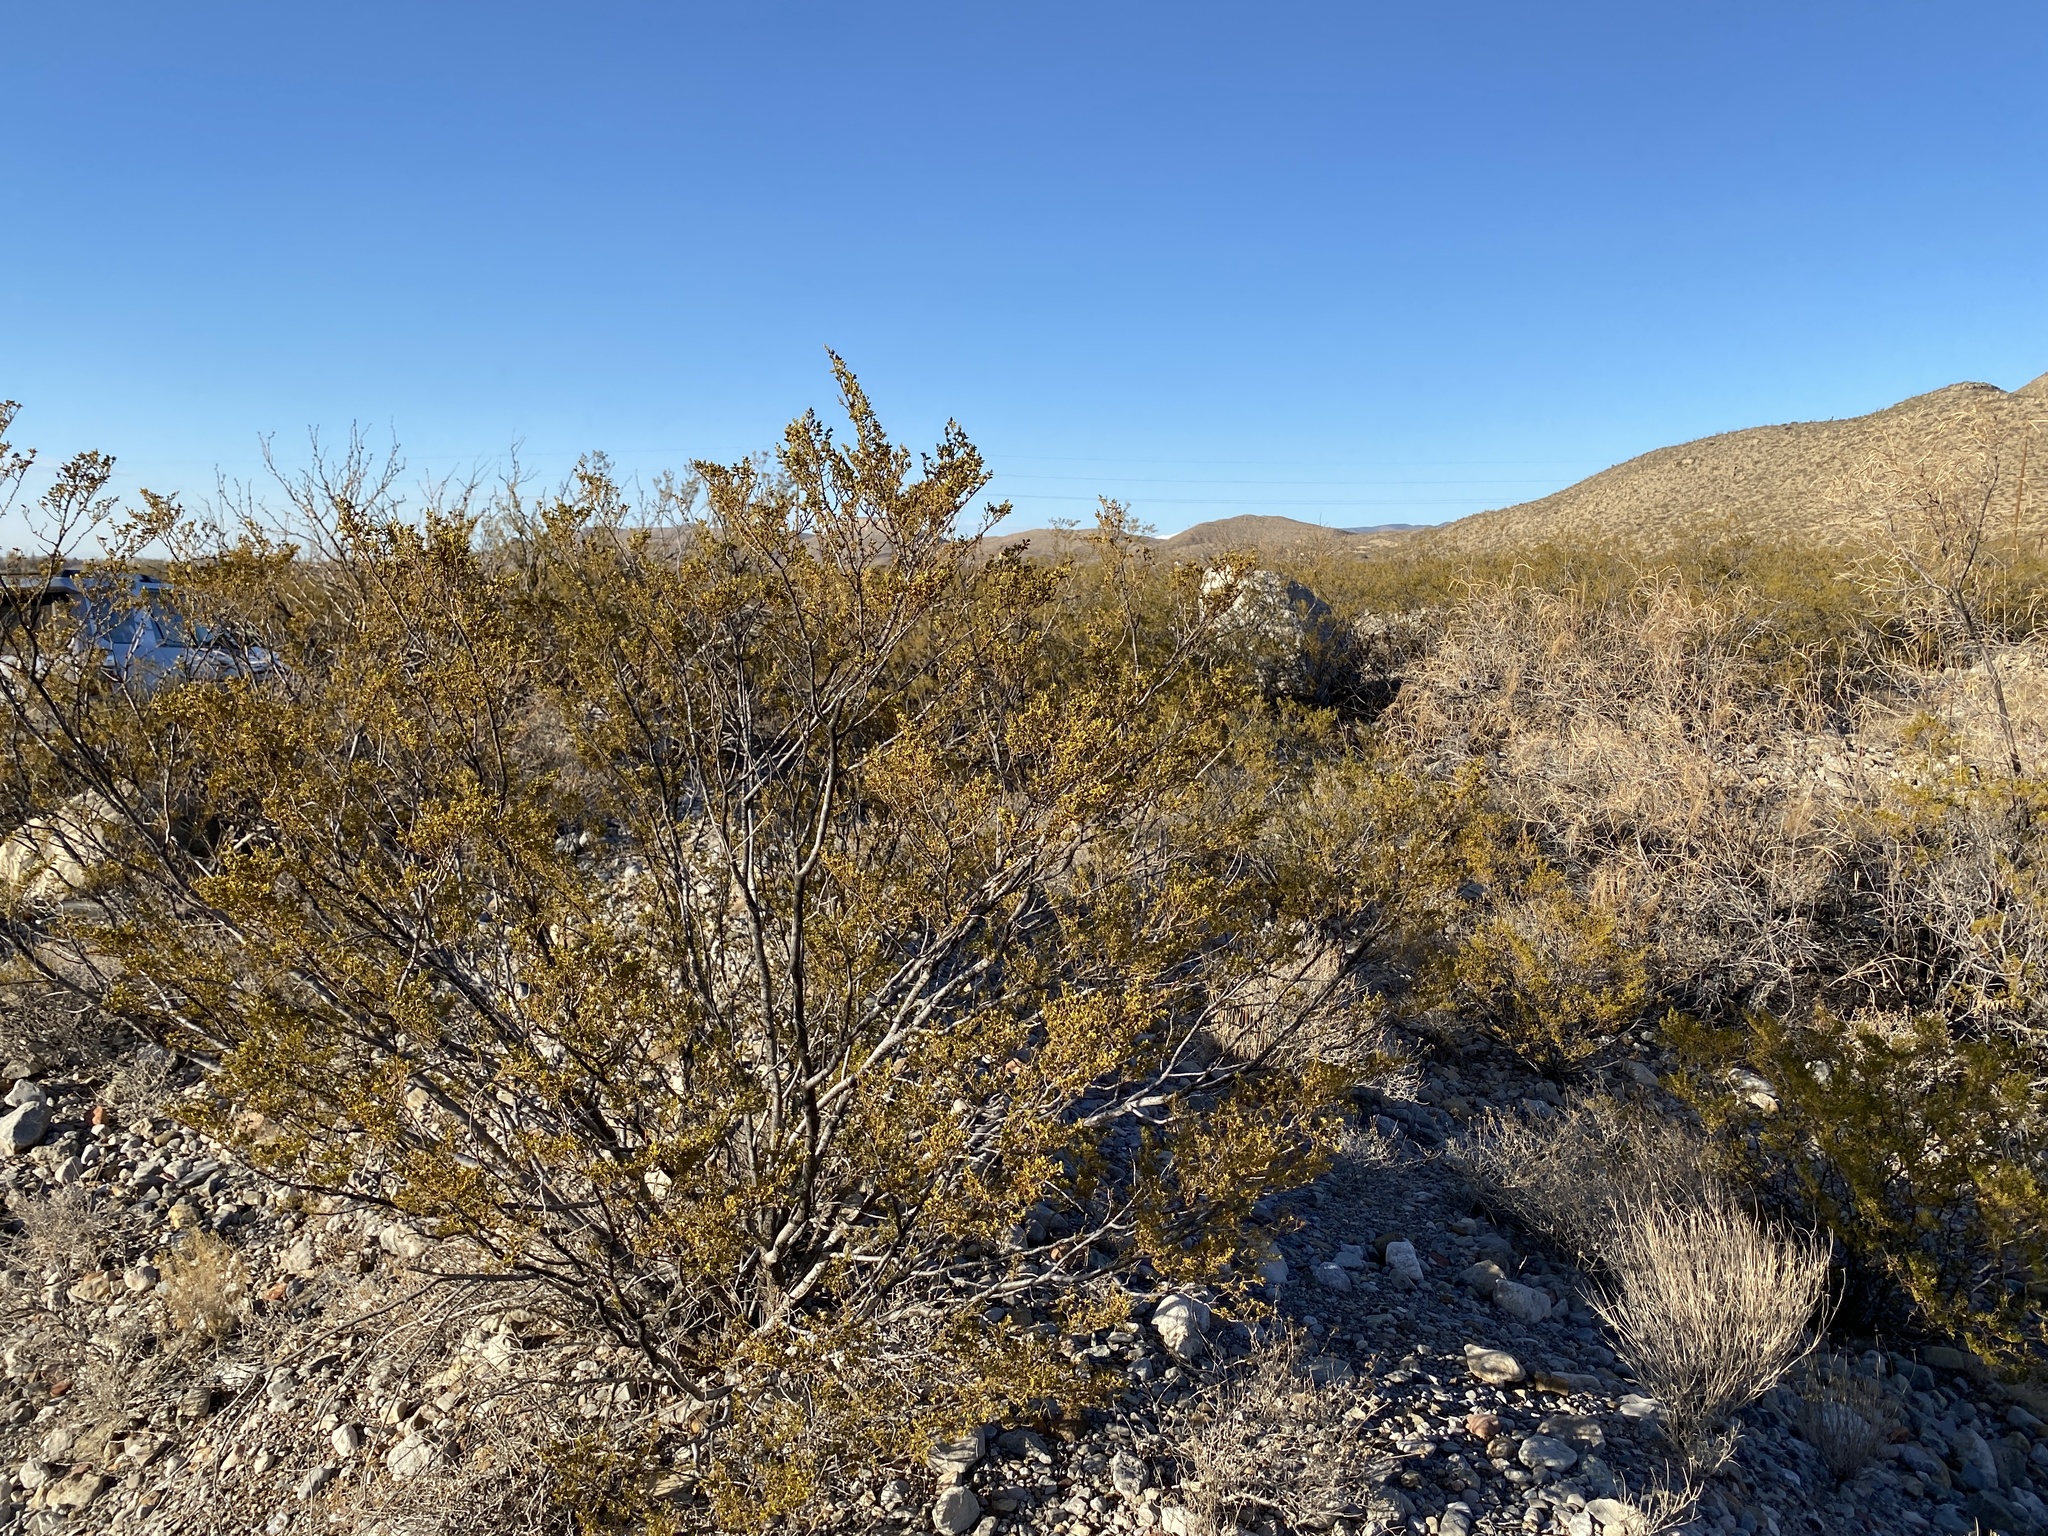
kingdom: Plantae
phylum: Tracheophyta
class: Magnoliopsida
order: Zygophyllales
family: Zygophyllaceae
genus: Larrea
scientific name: Larrea tridentata
